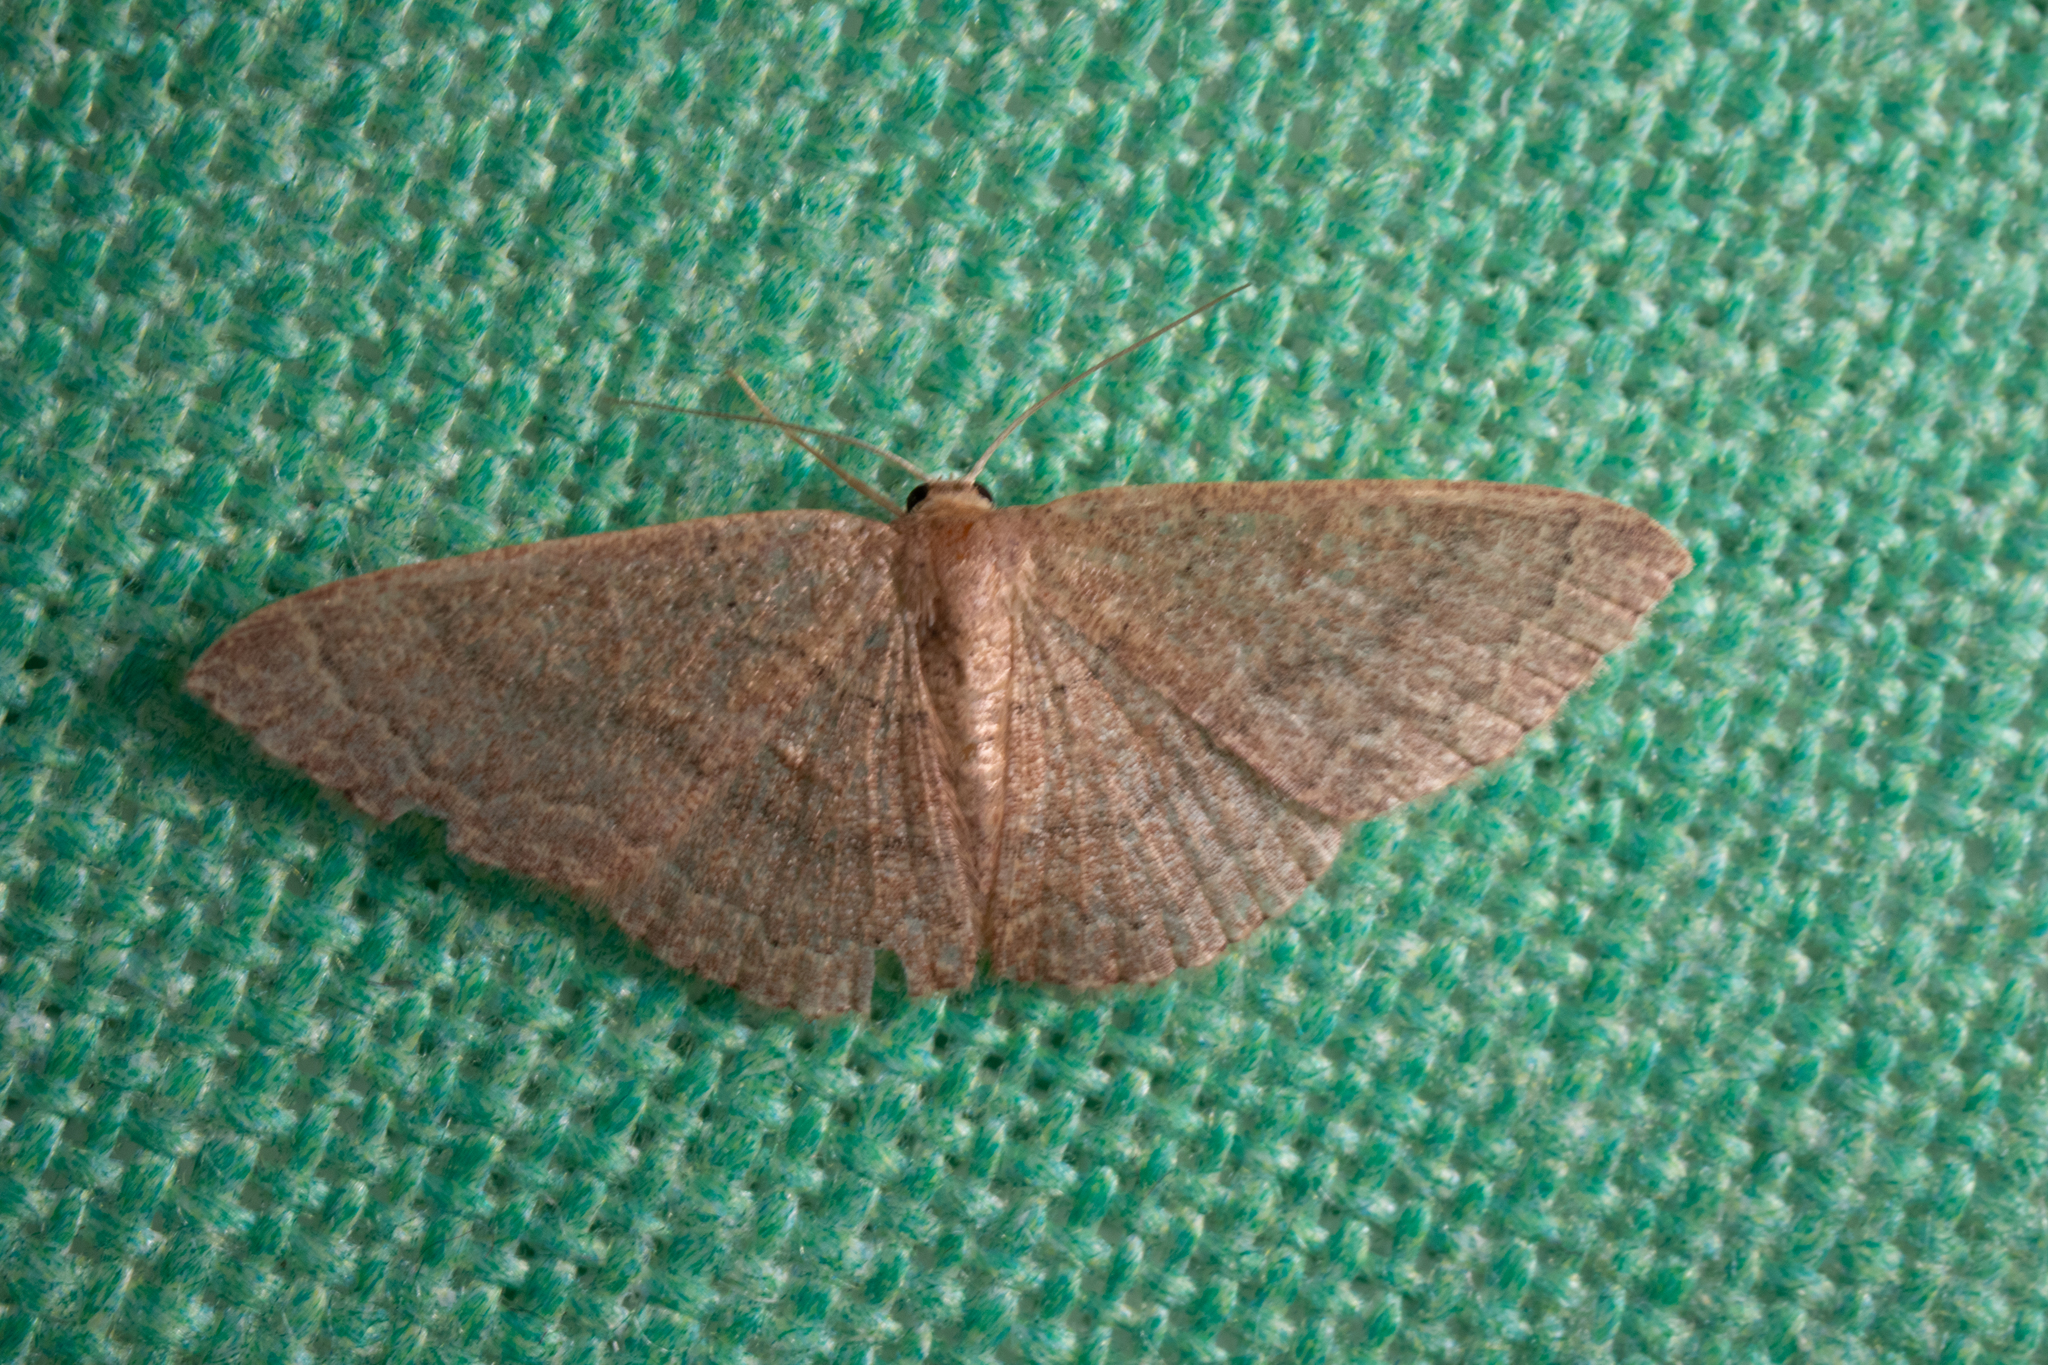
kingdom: Animalia
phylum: Arthropoda
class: Insecta
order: Lepidoptera
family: Geometridae
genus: Pleuroprucha
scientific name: Pleuroprucha insulsaria
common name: Common tan wave
